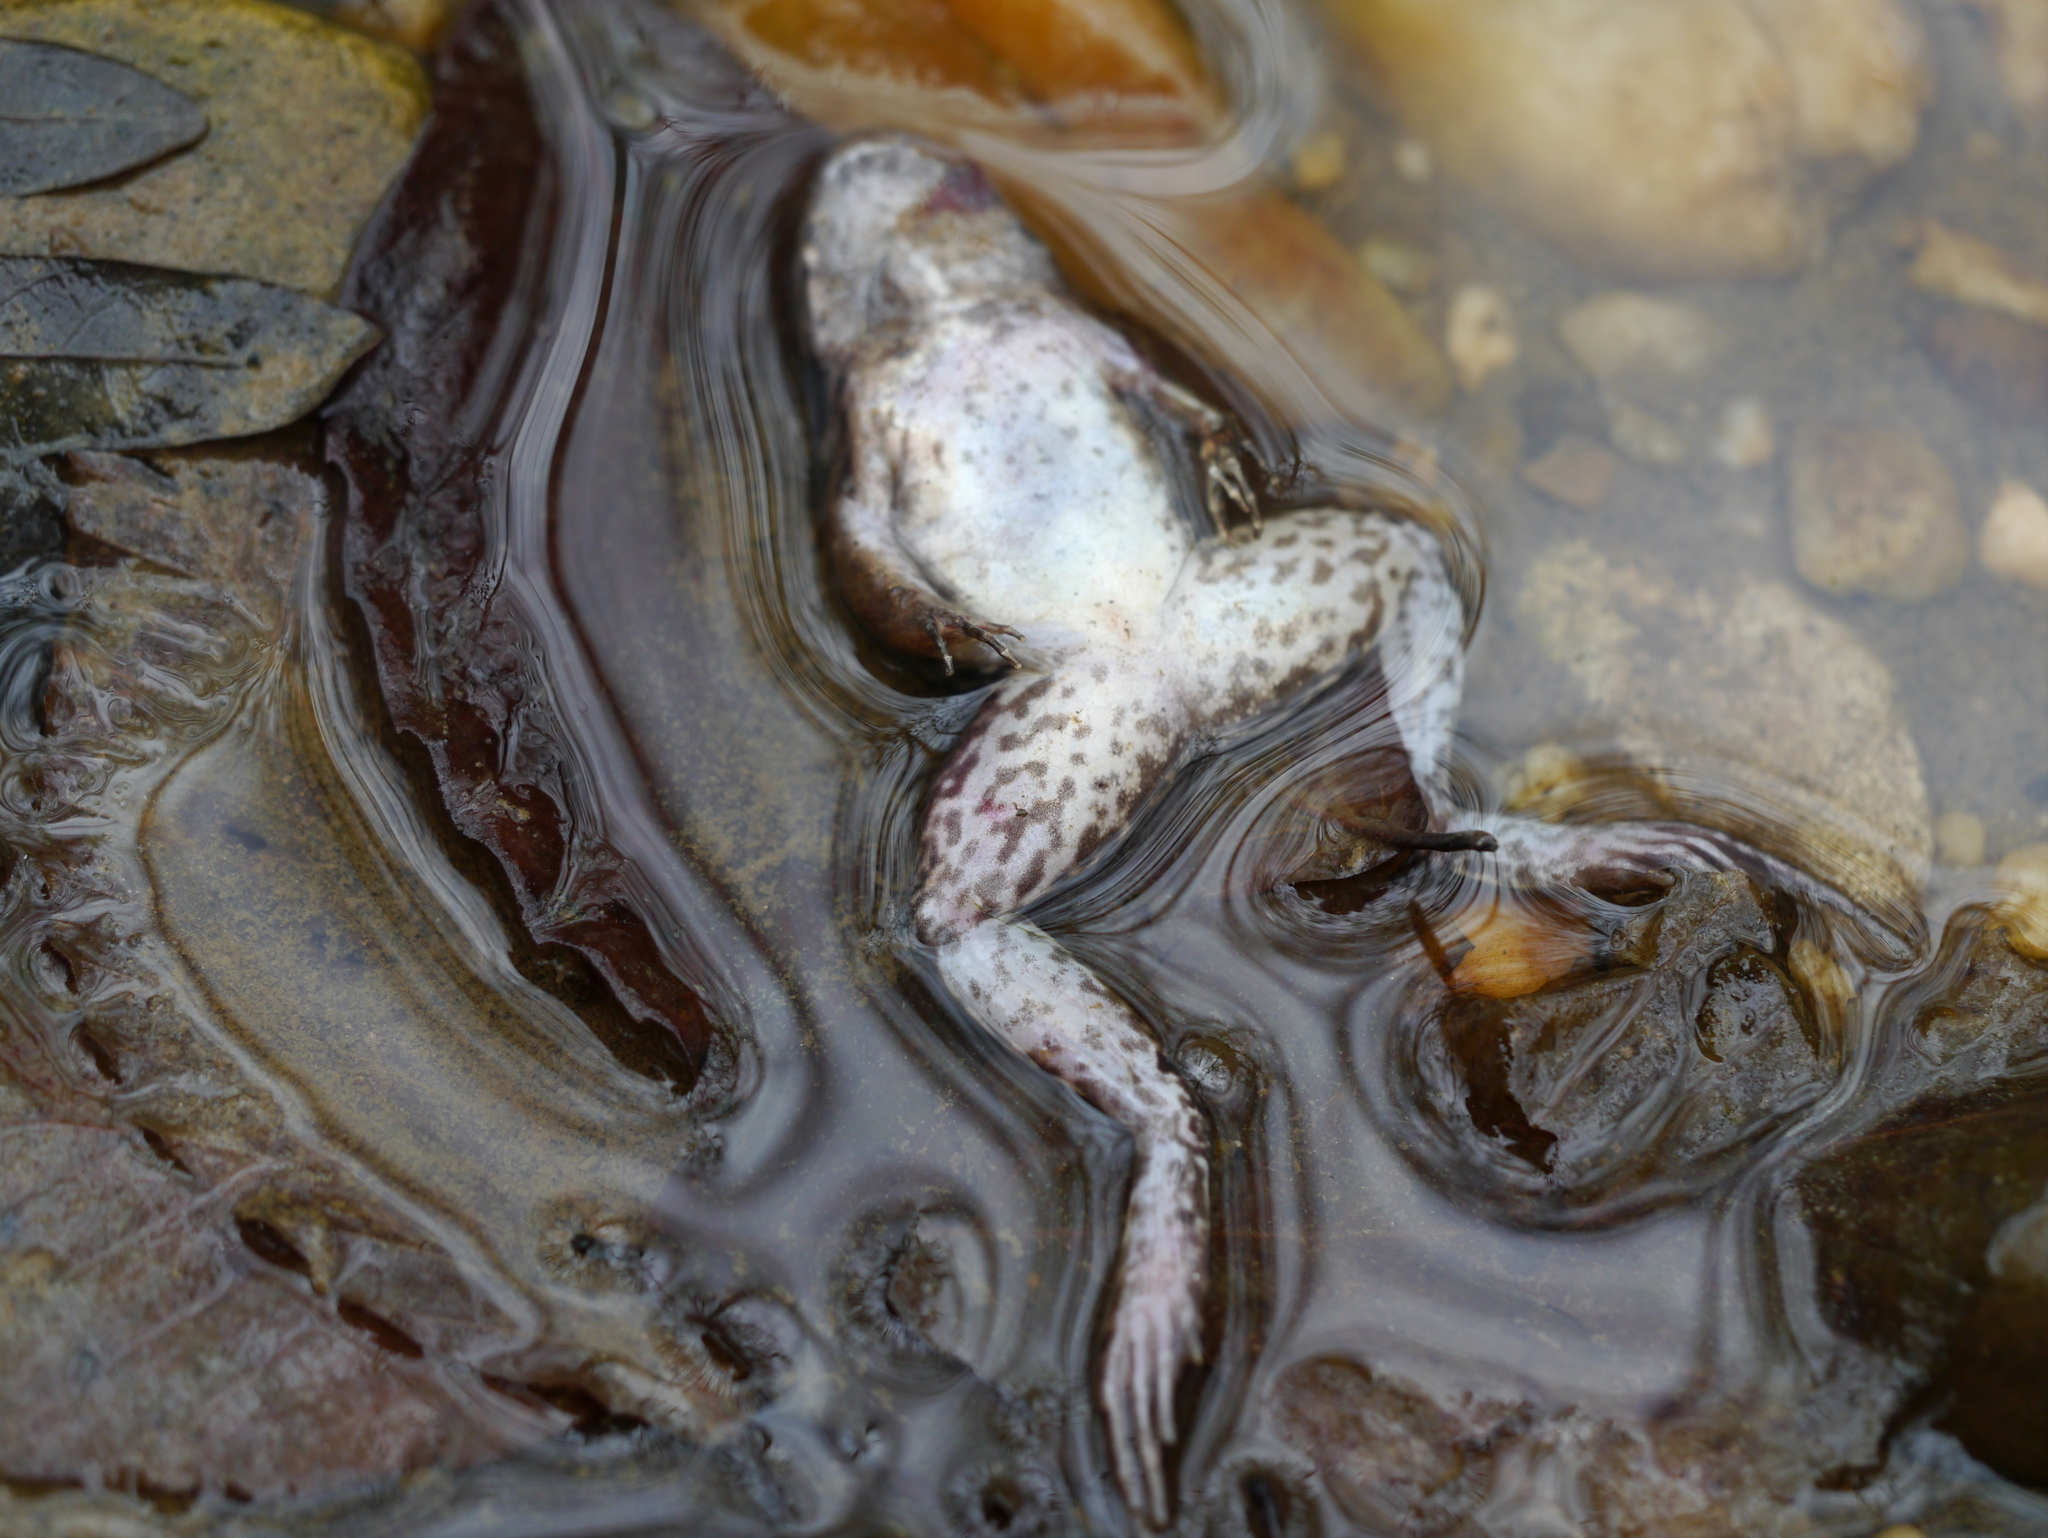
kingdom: Animalia
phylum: Chordata
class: Amphibia
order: Anura
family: Ranidae
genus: Lithobates
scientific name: Lithobates clamitans
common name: Green frog
